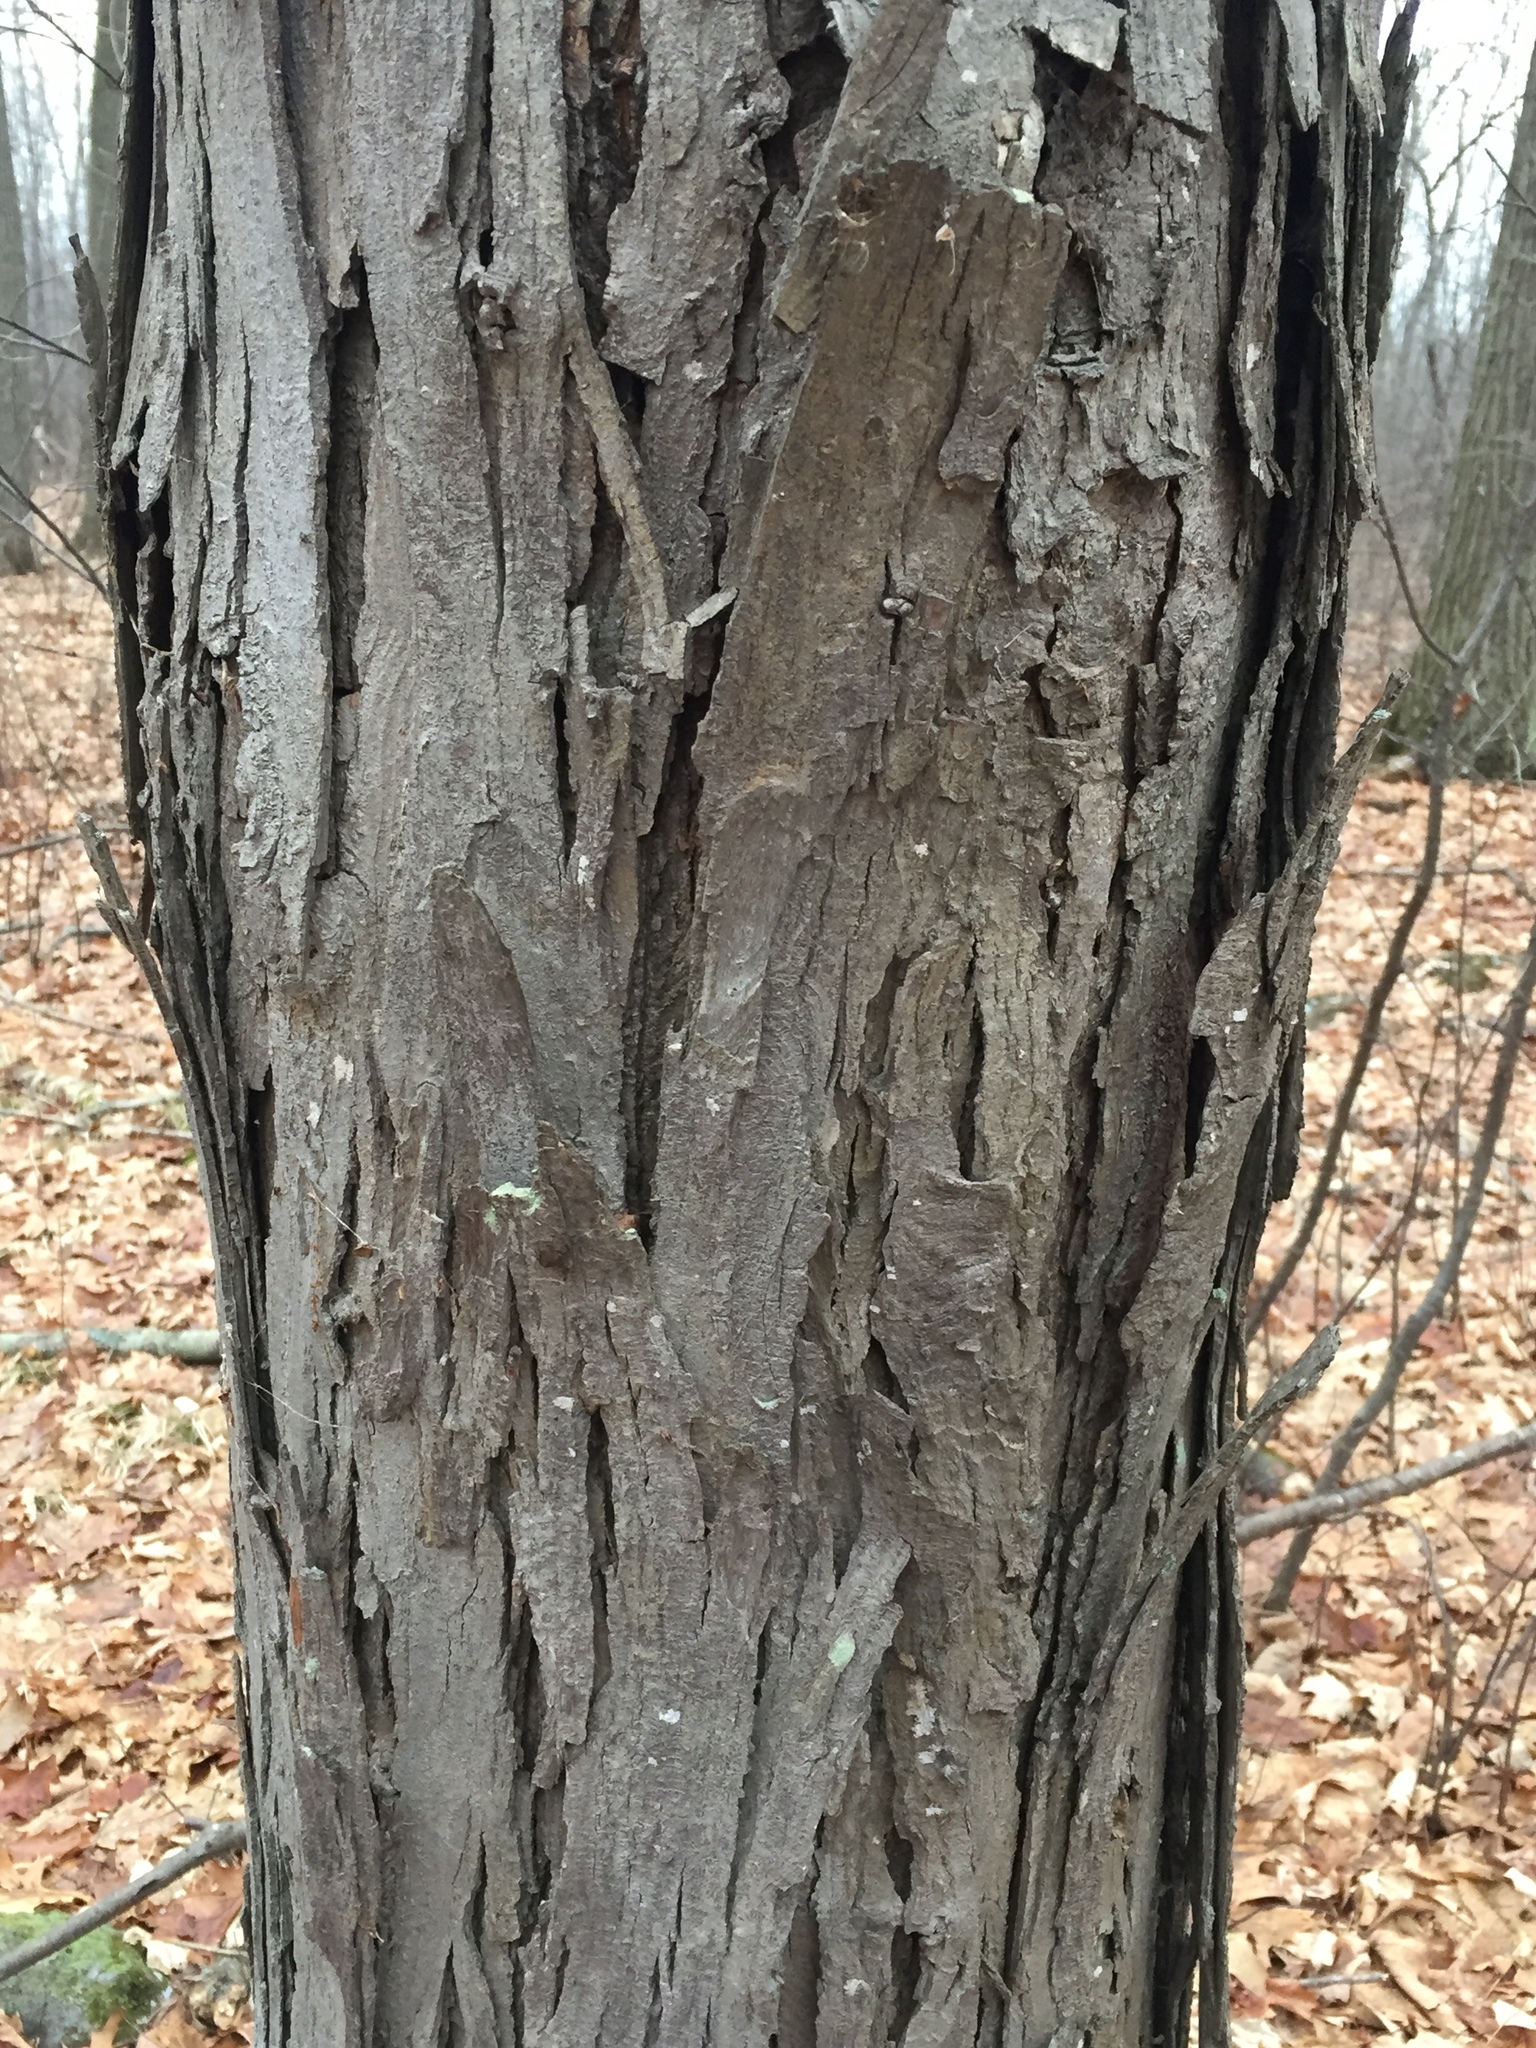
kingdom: Plantae
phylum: Tracheophyta
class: Magnoliopsida
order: Fagales
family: Juglandaceae
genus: Carya
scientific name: Carya ovata
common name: Shagbark hickory
